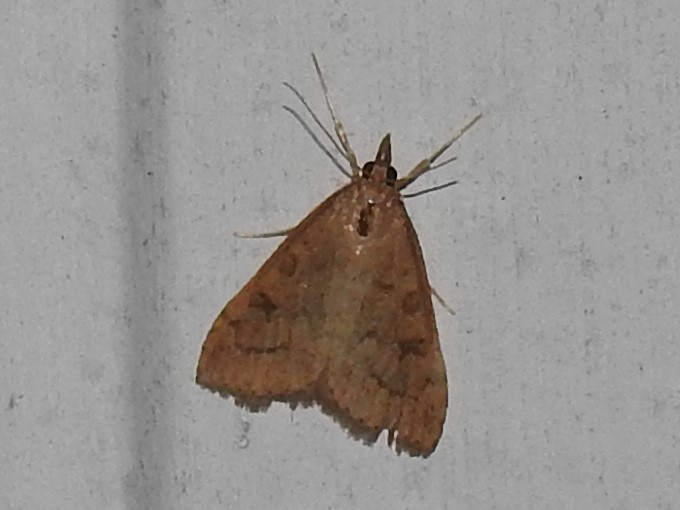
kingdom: Animalia
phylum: Arthropoda
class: Insecta
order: Lepidoptera
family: Crambidae
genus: Udea
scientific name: Udea rubigalis
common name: Celery leaftier moth
